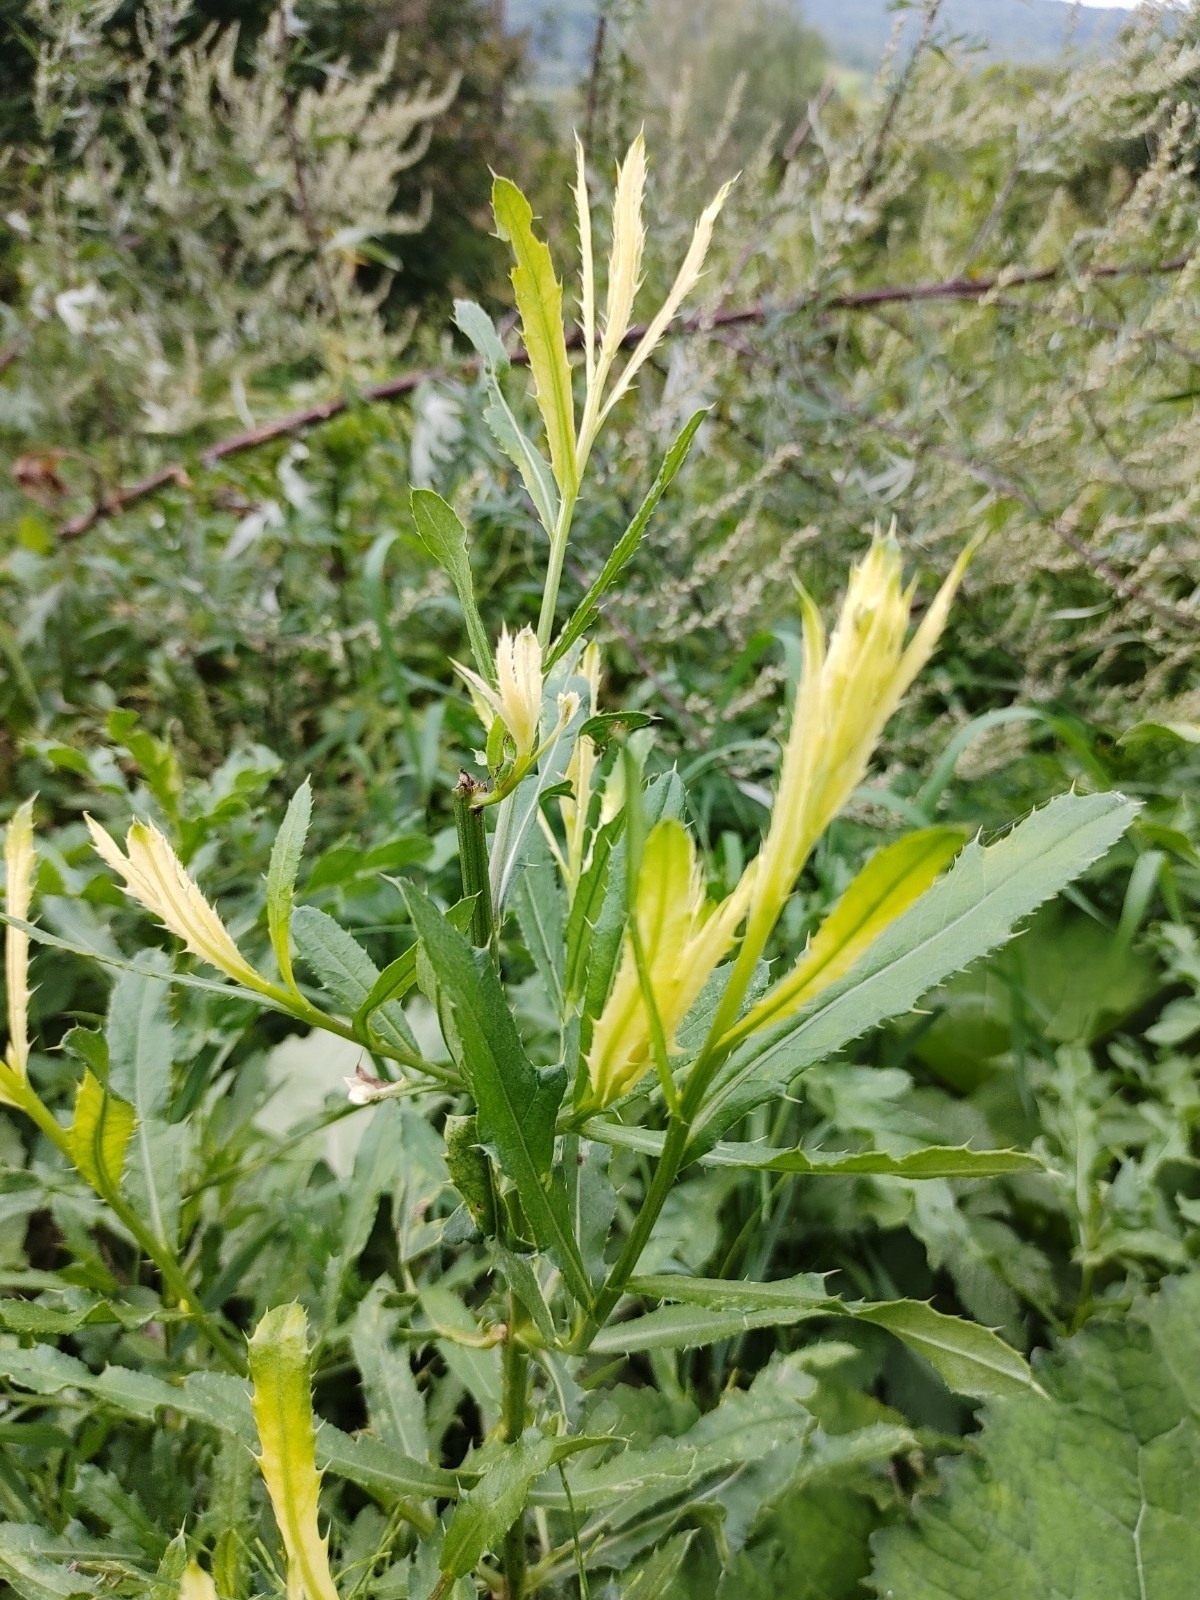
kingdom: Plantae
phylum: Tracheophyta
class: Magnoliopsida
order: Asterales
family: Asteraceae
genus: Cirsium
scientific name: Cirsium arvense
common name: Creeping thistle
